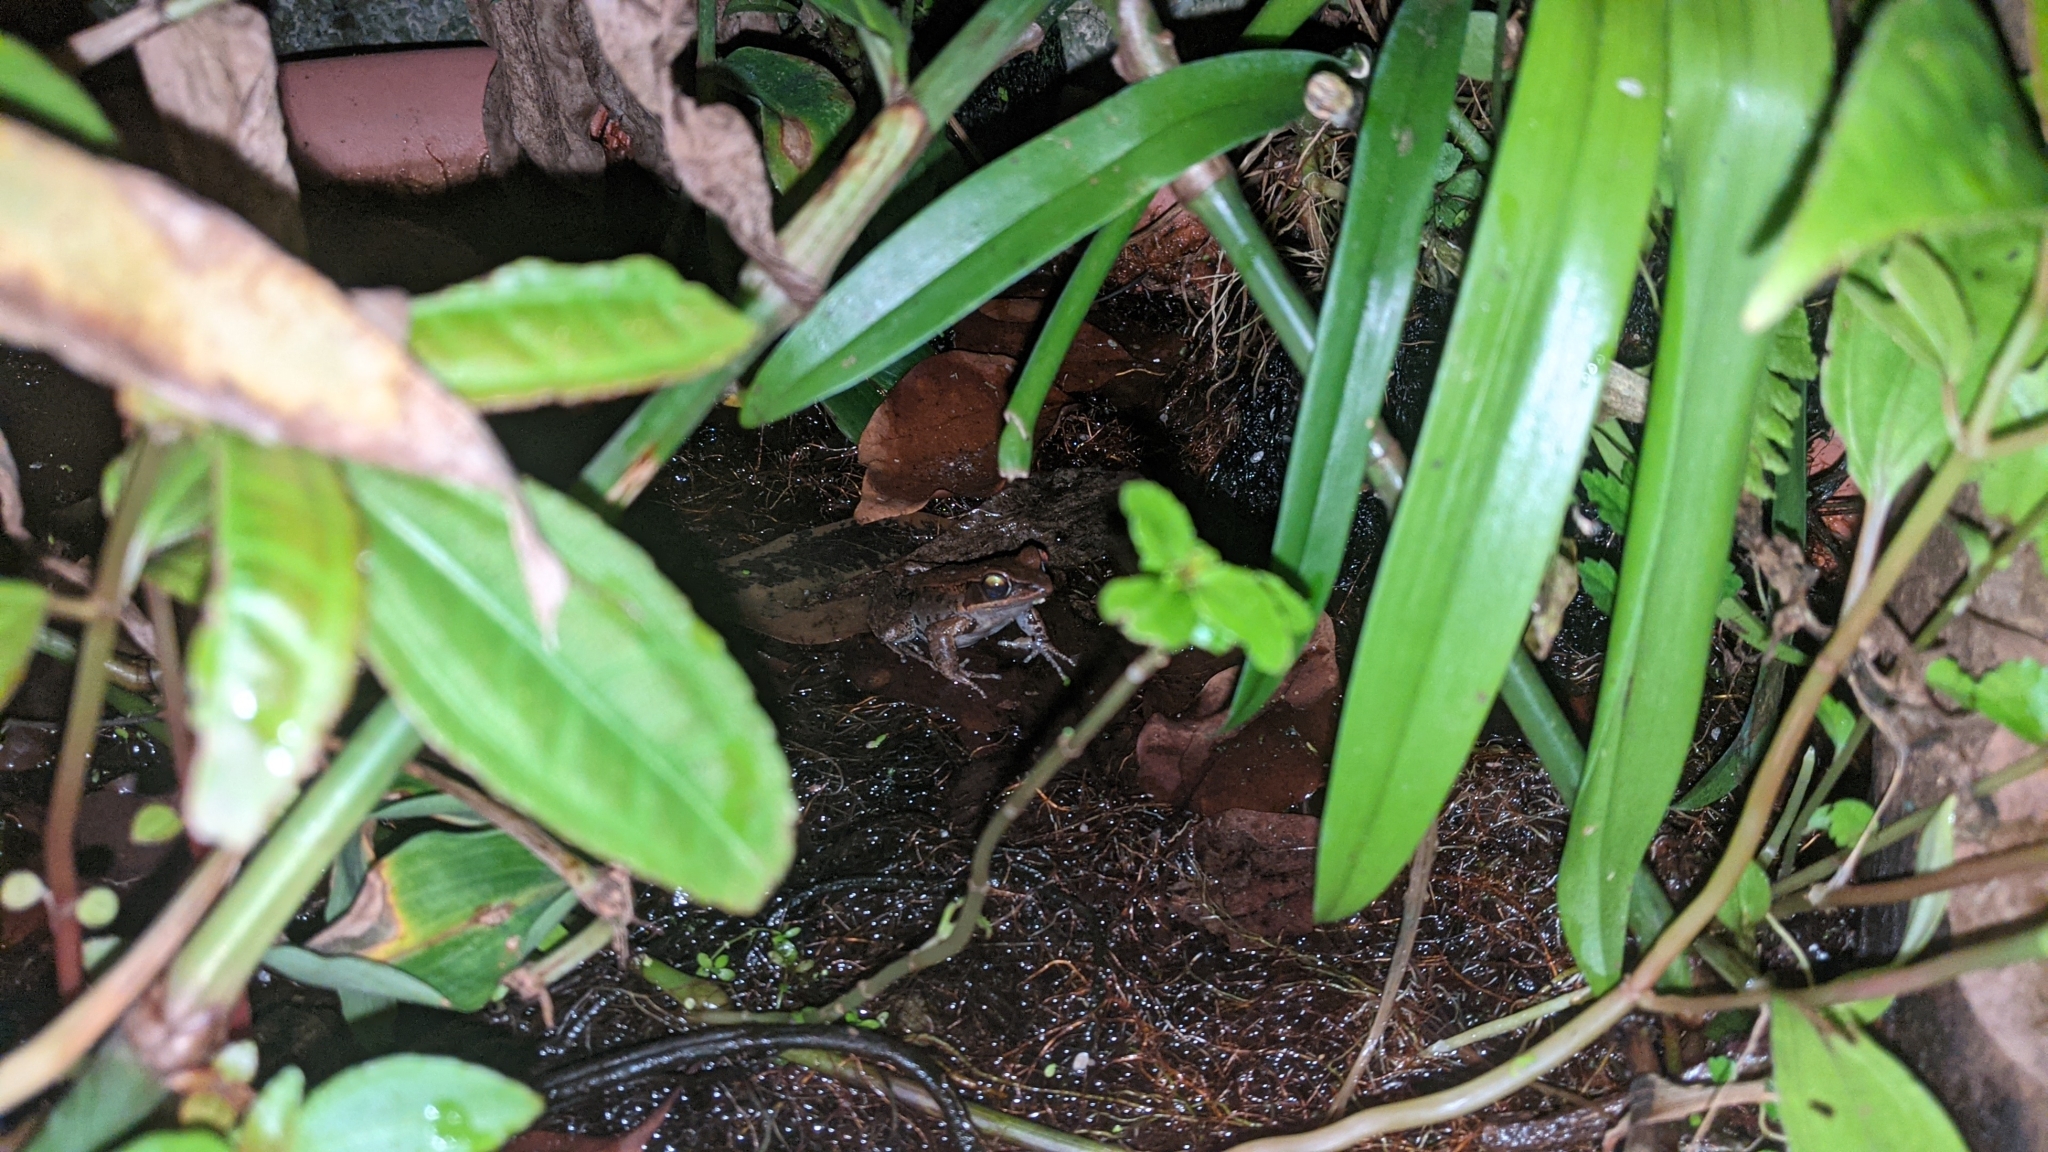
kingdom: Animalia
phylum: Chordata
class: Amphibia
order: Anura
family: Ranidae
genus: Hylarana
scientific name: Hylarana latouchii
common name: Broad-folded frog
